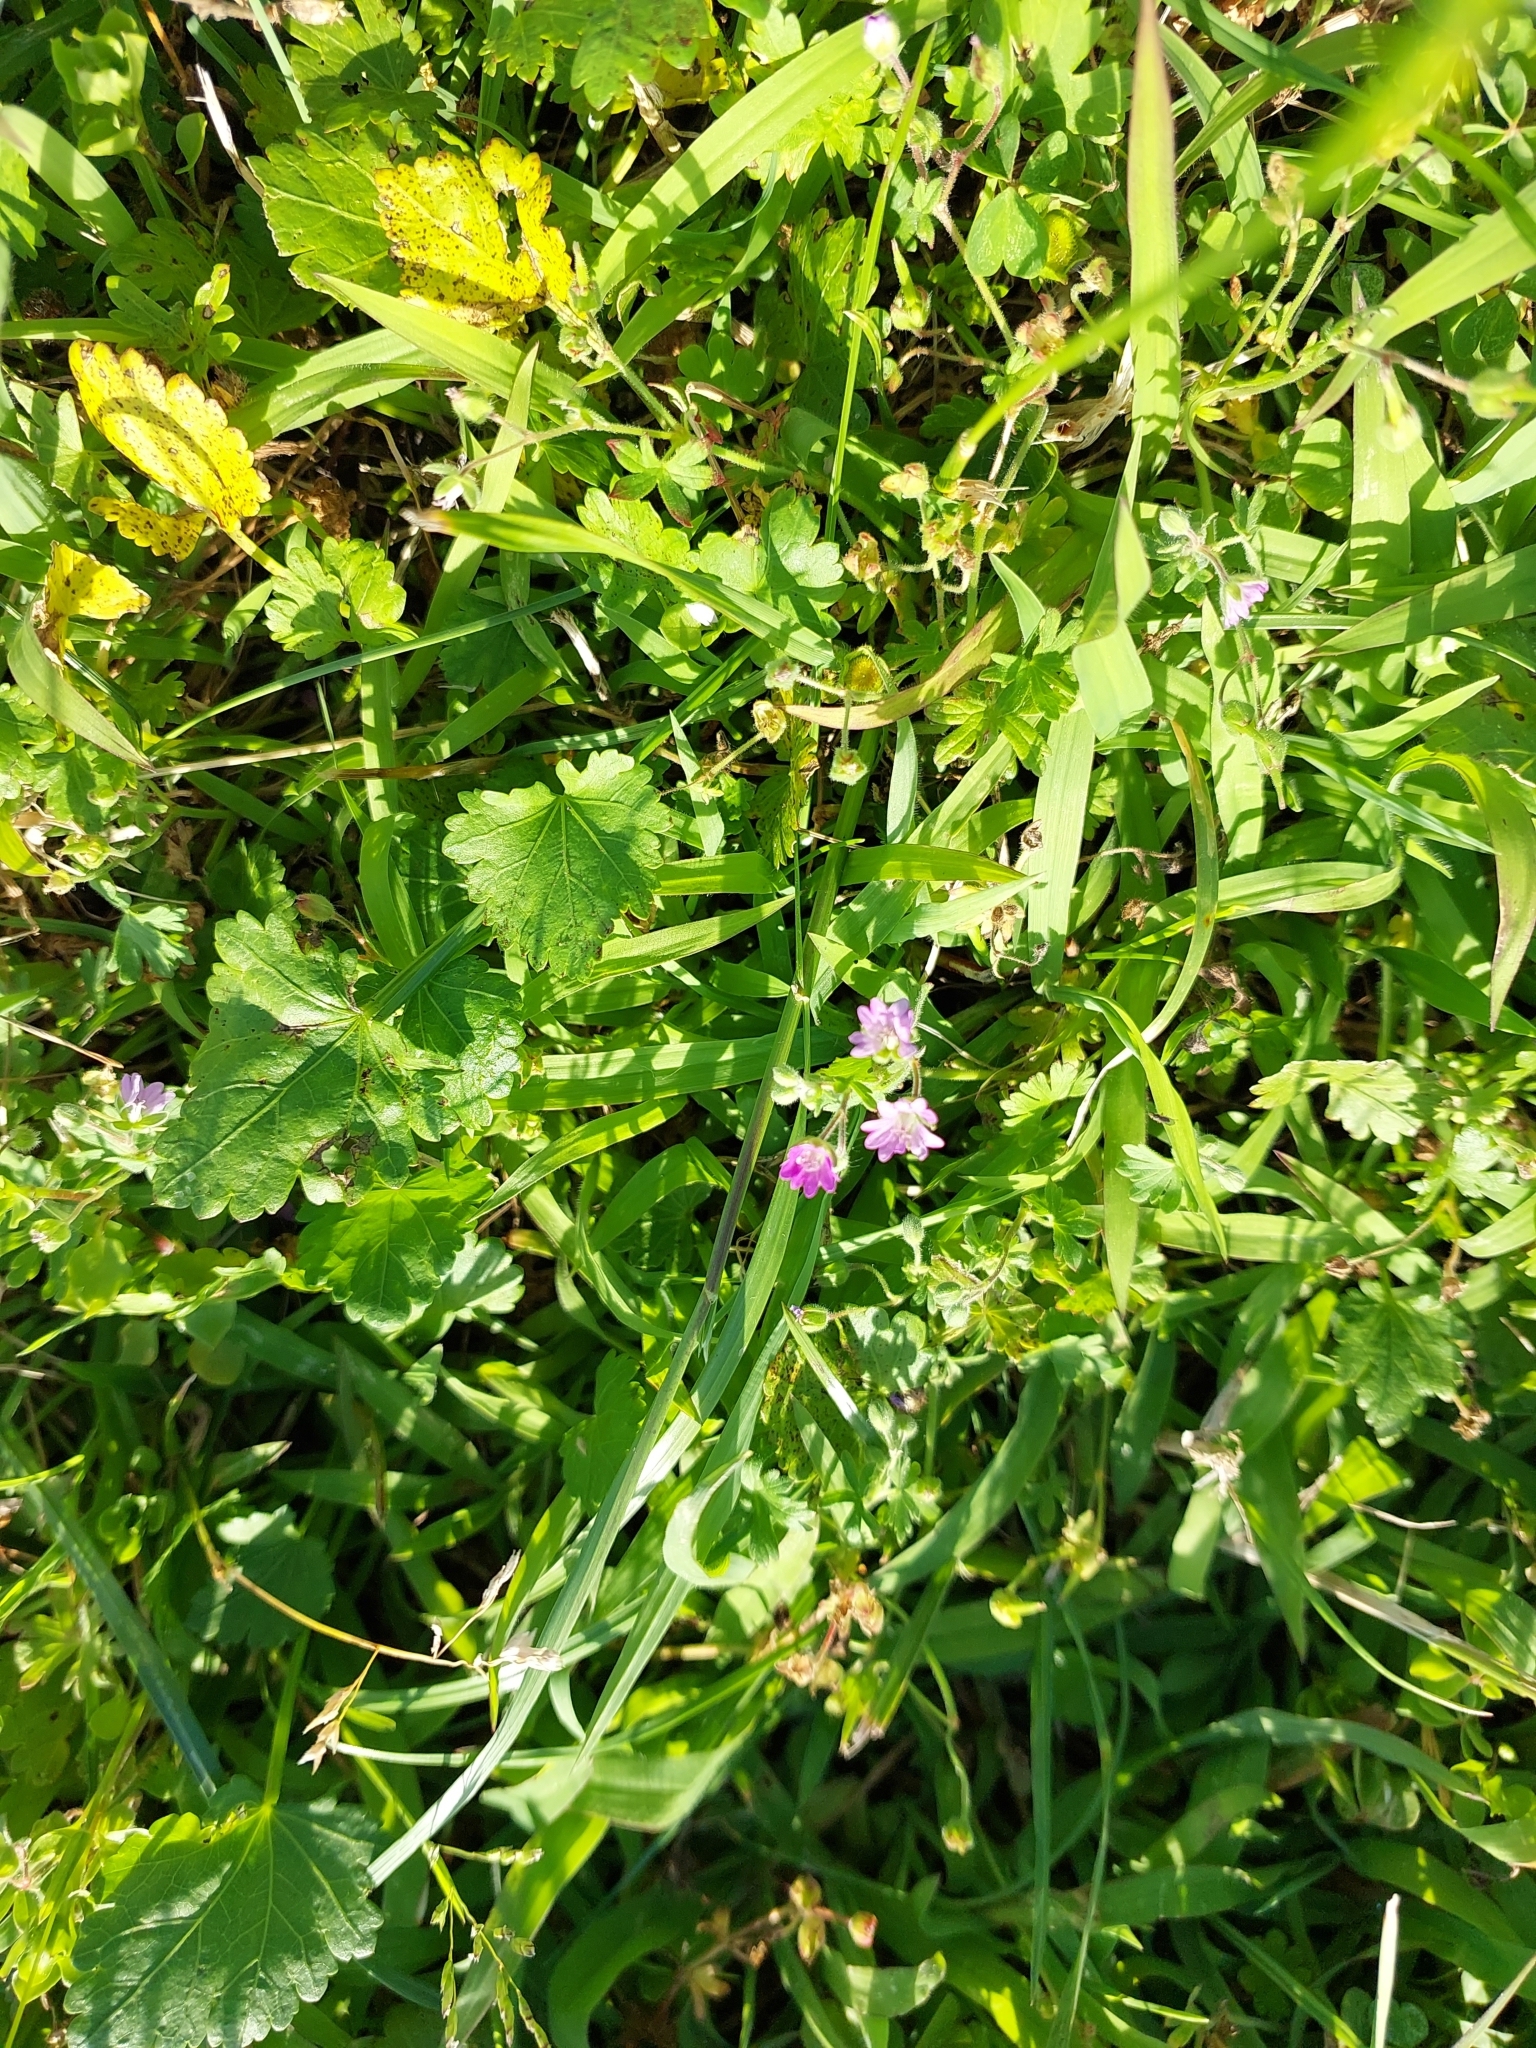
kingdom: Plantae
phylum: Tracheophyta
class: Magnoliopsida
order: Geraniales
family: Geraniaceae
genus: Geranium
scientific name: Geranium molle
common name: Dove's-foot crane's-bill
